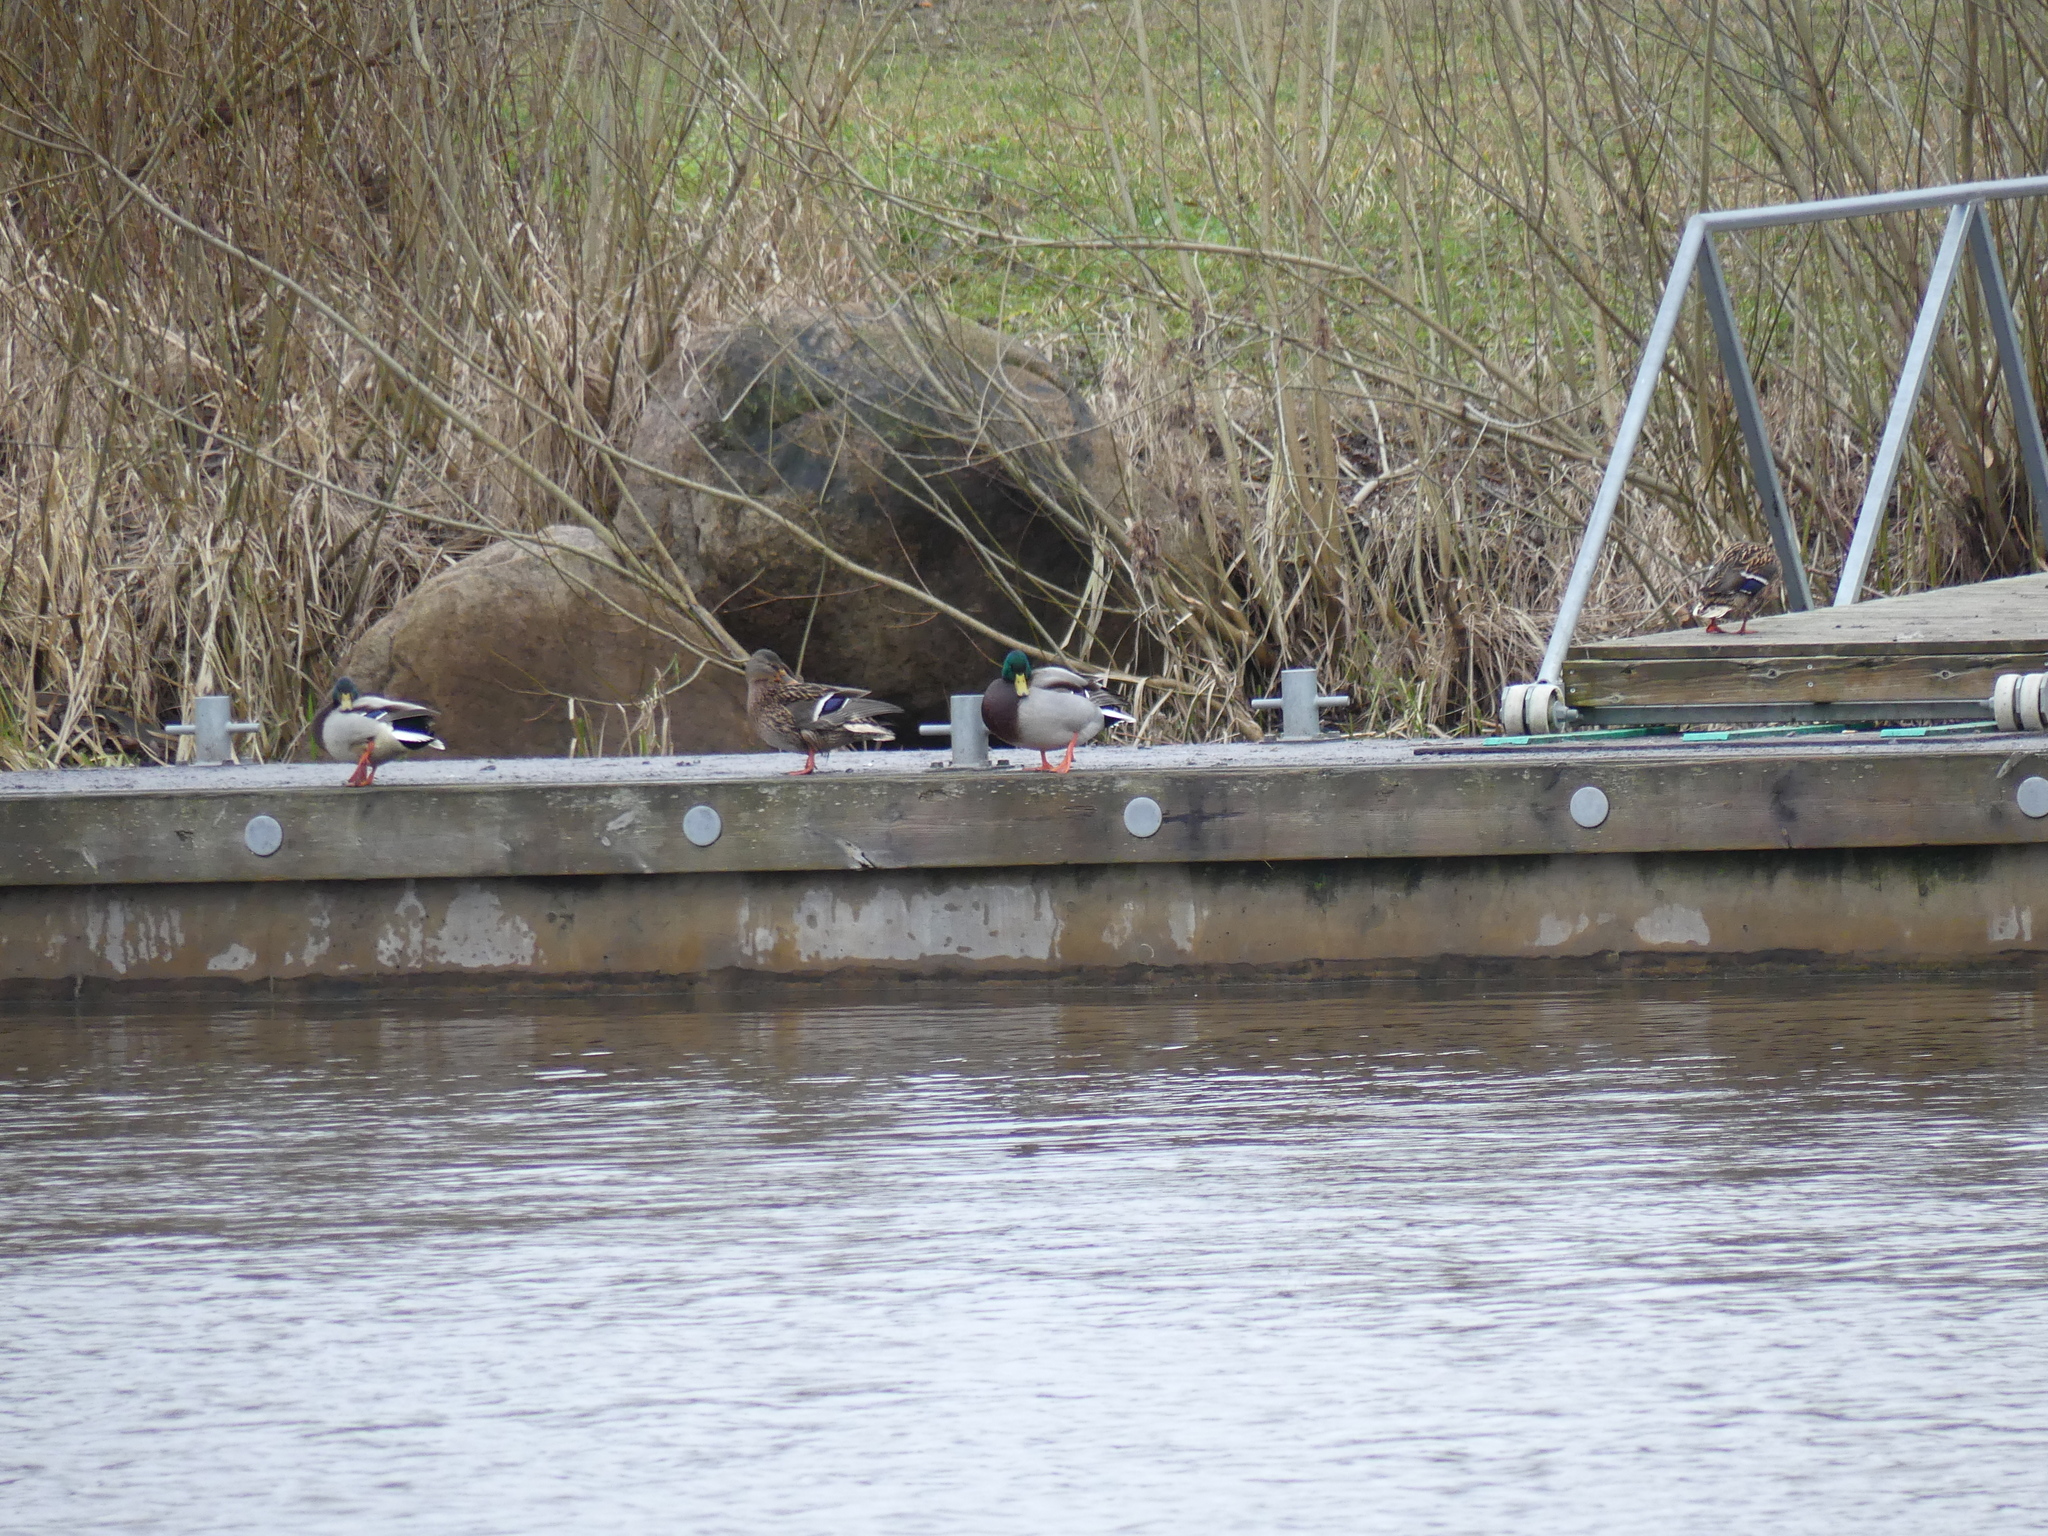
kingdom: Animalia
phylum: Chordata
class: Aves
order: Anseriformes
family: Anatidae
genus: Anas
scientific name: Anas platyrhynchos
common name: Mallard
